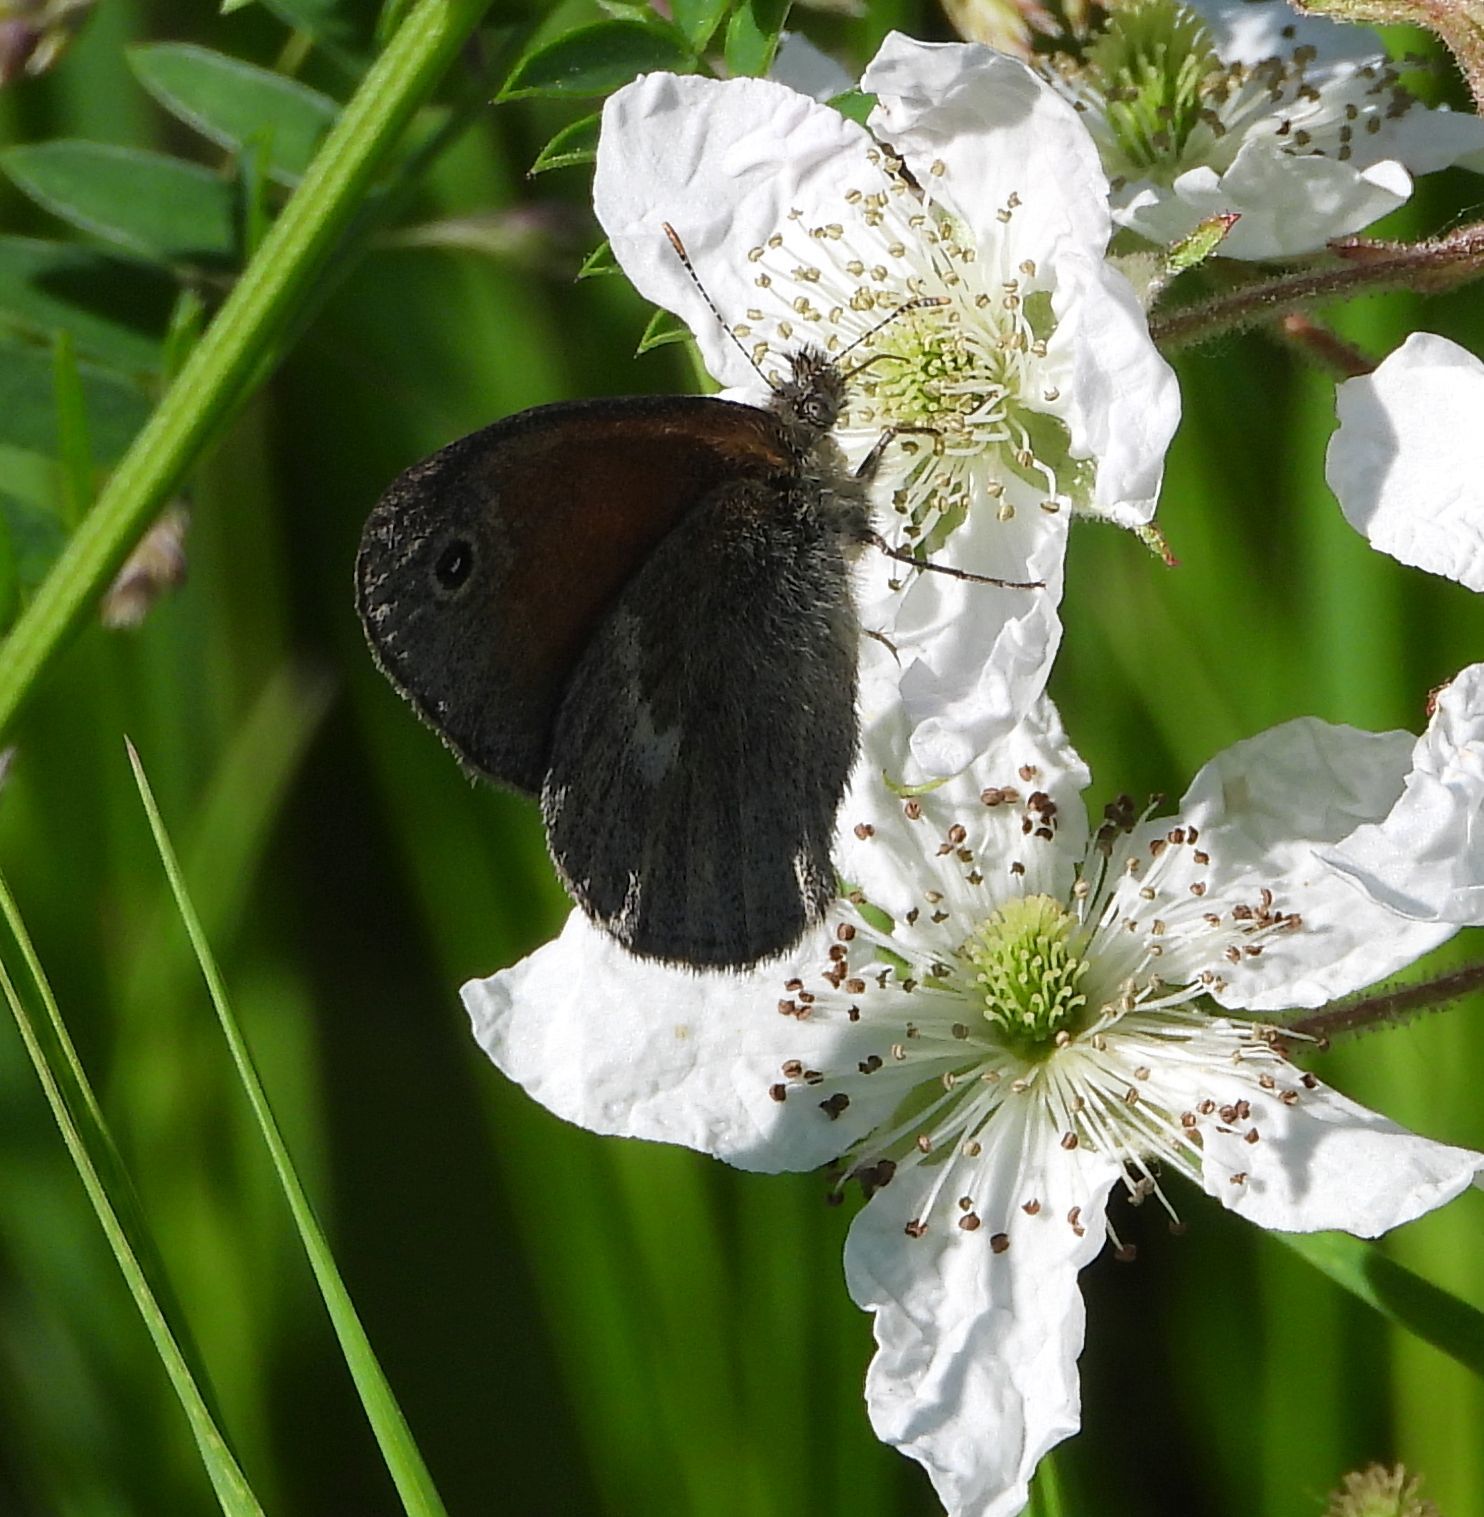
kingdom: Animalia
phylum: Arthropoda
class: Insecta
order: Lepidoptera
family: Nymphalidae
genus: Coenonympha
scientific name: Coenonympha california
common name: Common ringlet
